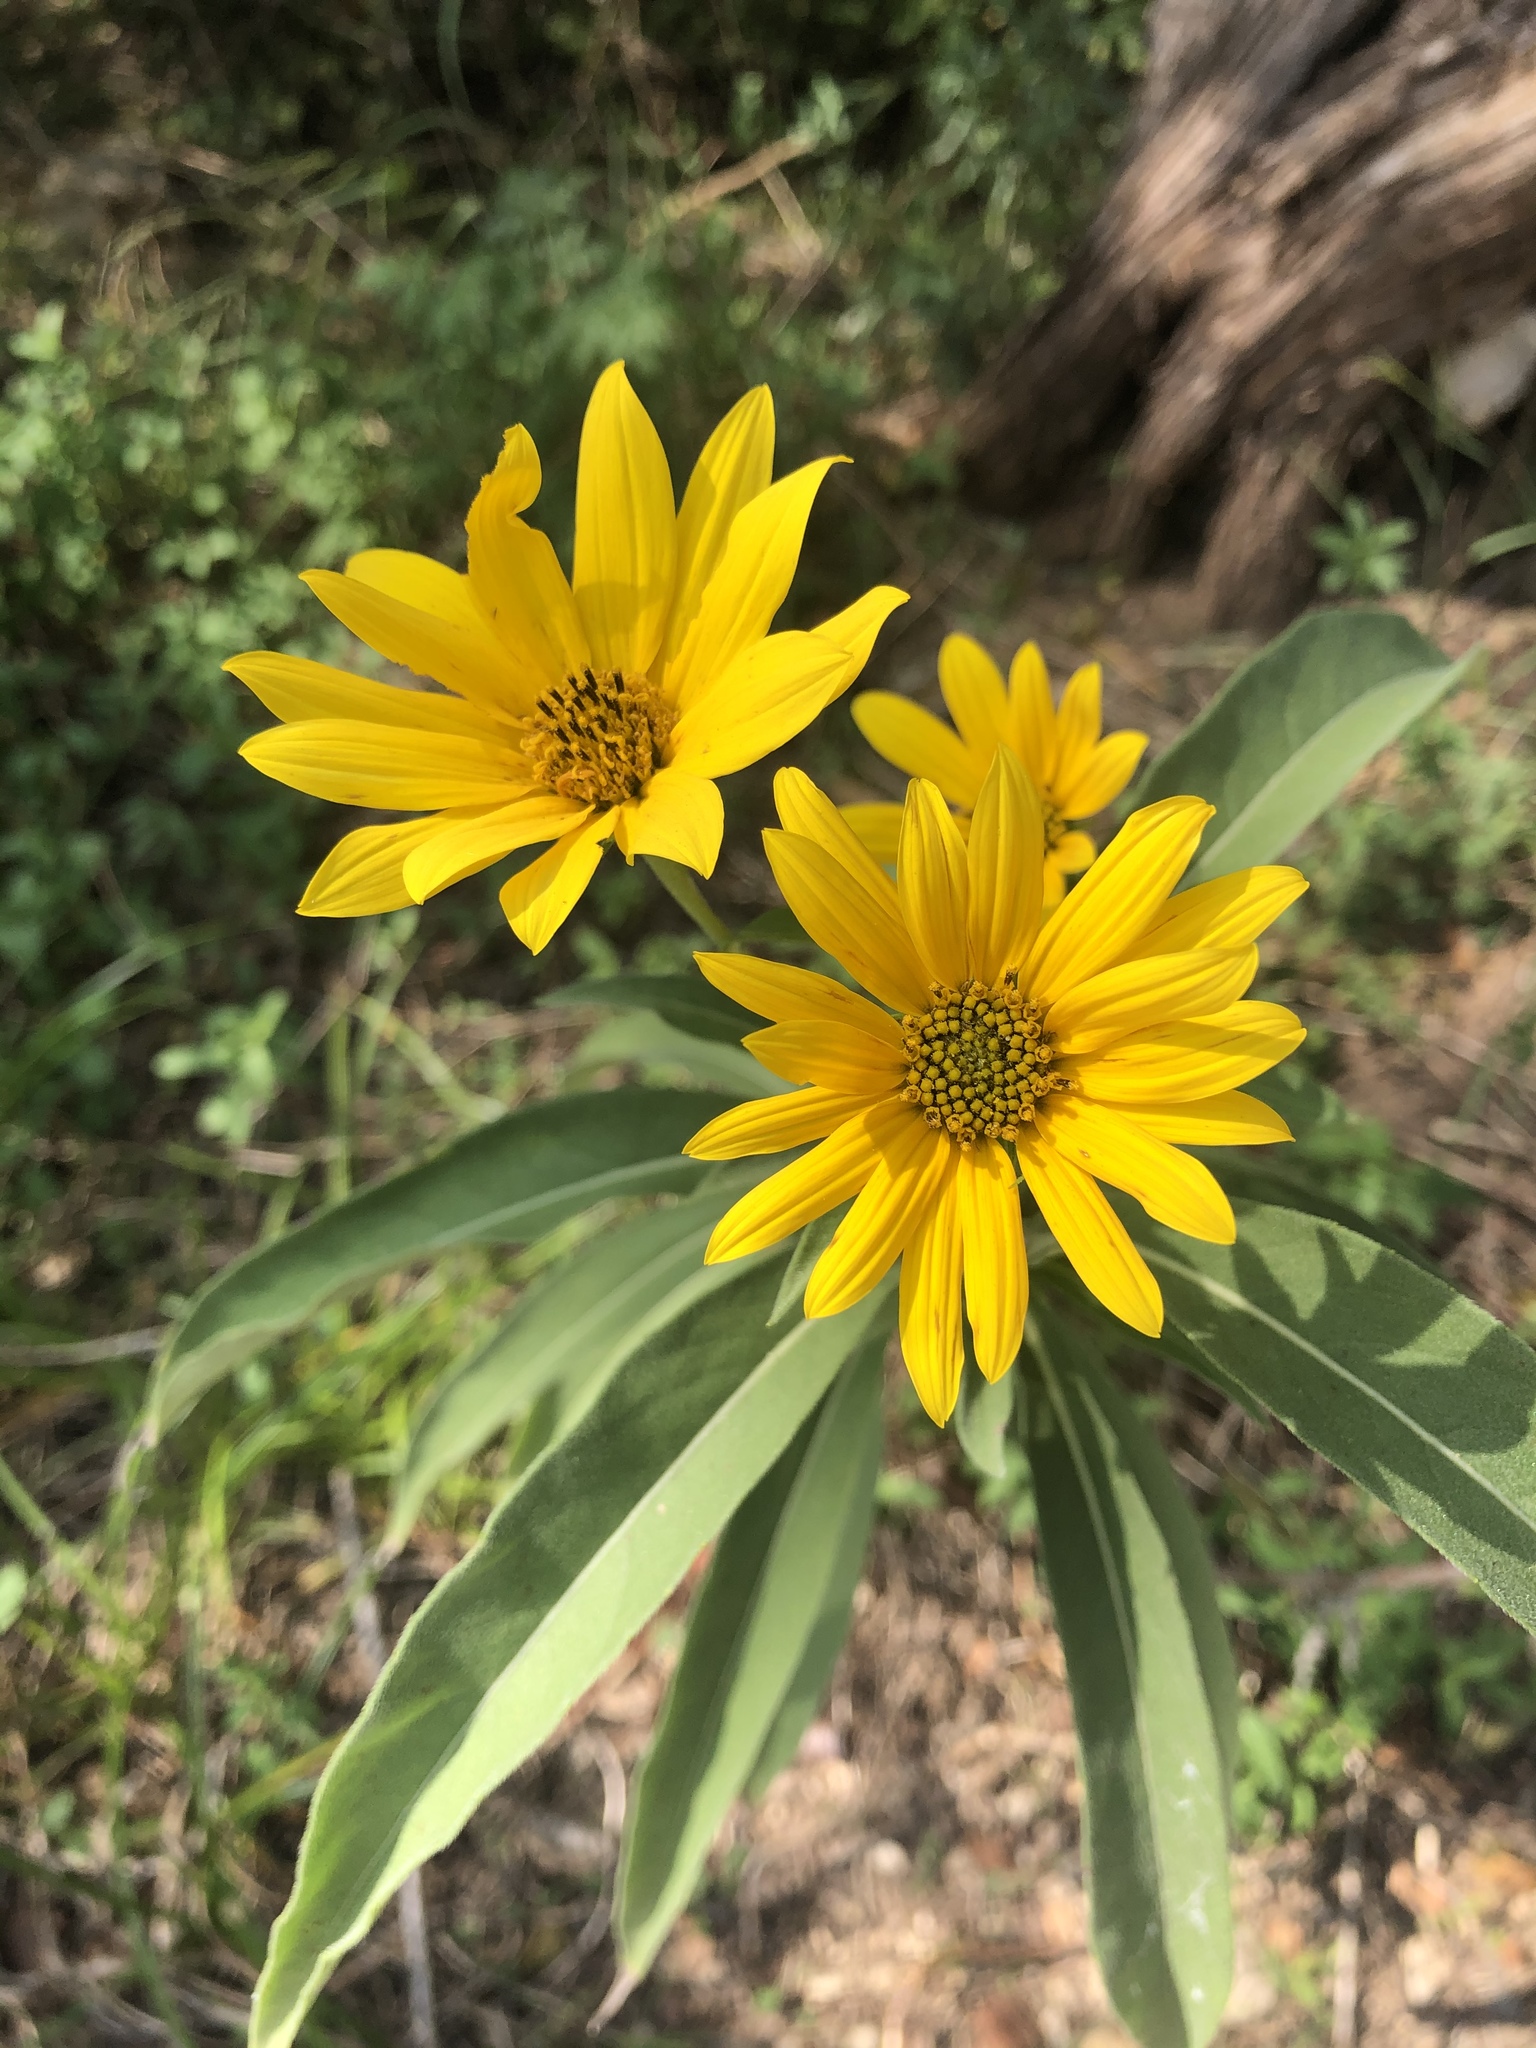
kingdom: Plantae
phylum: Tracheophyta
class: Magnoliopsida
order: Asterales
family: Asteraceae
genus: Helianthus
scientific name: Helianthus maximiliani
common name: Maximilian's sunflower
